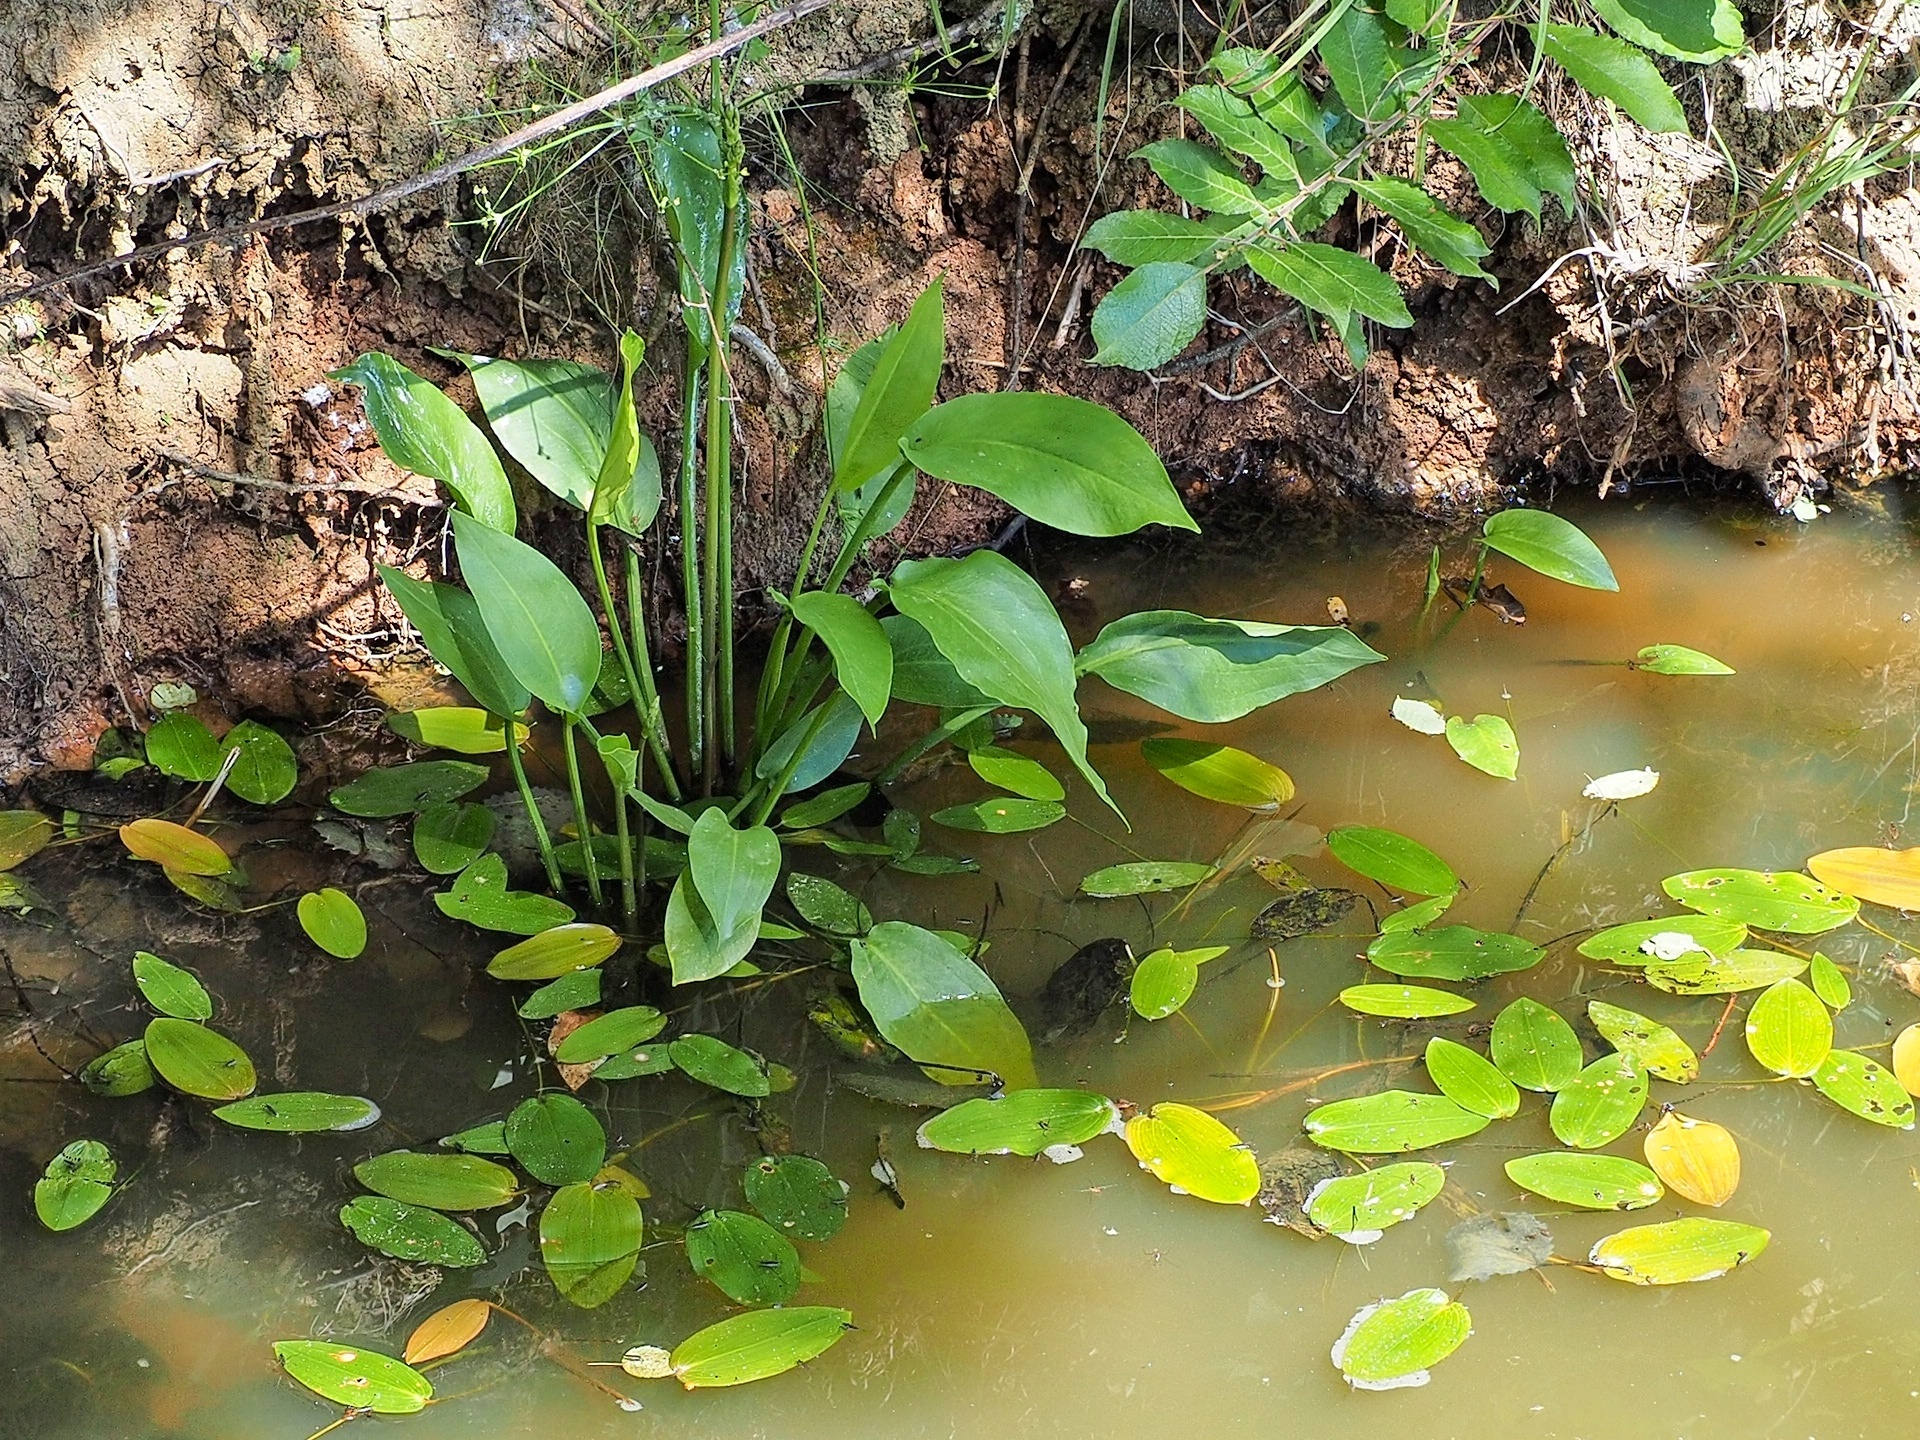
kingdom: Plantae
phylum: Tracheophyta
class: Liliopsida
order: Alismatales
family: Alismataceae
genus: Alisma
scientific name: Alisma plantago-aquatica
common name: Water-plantain
